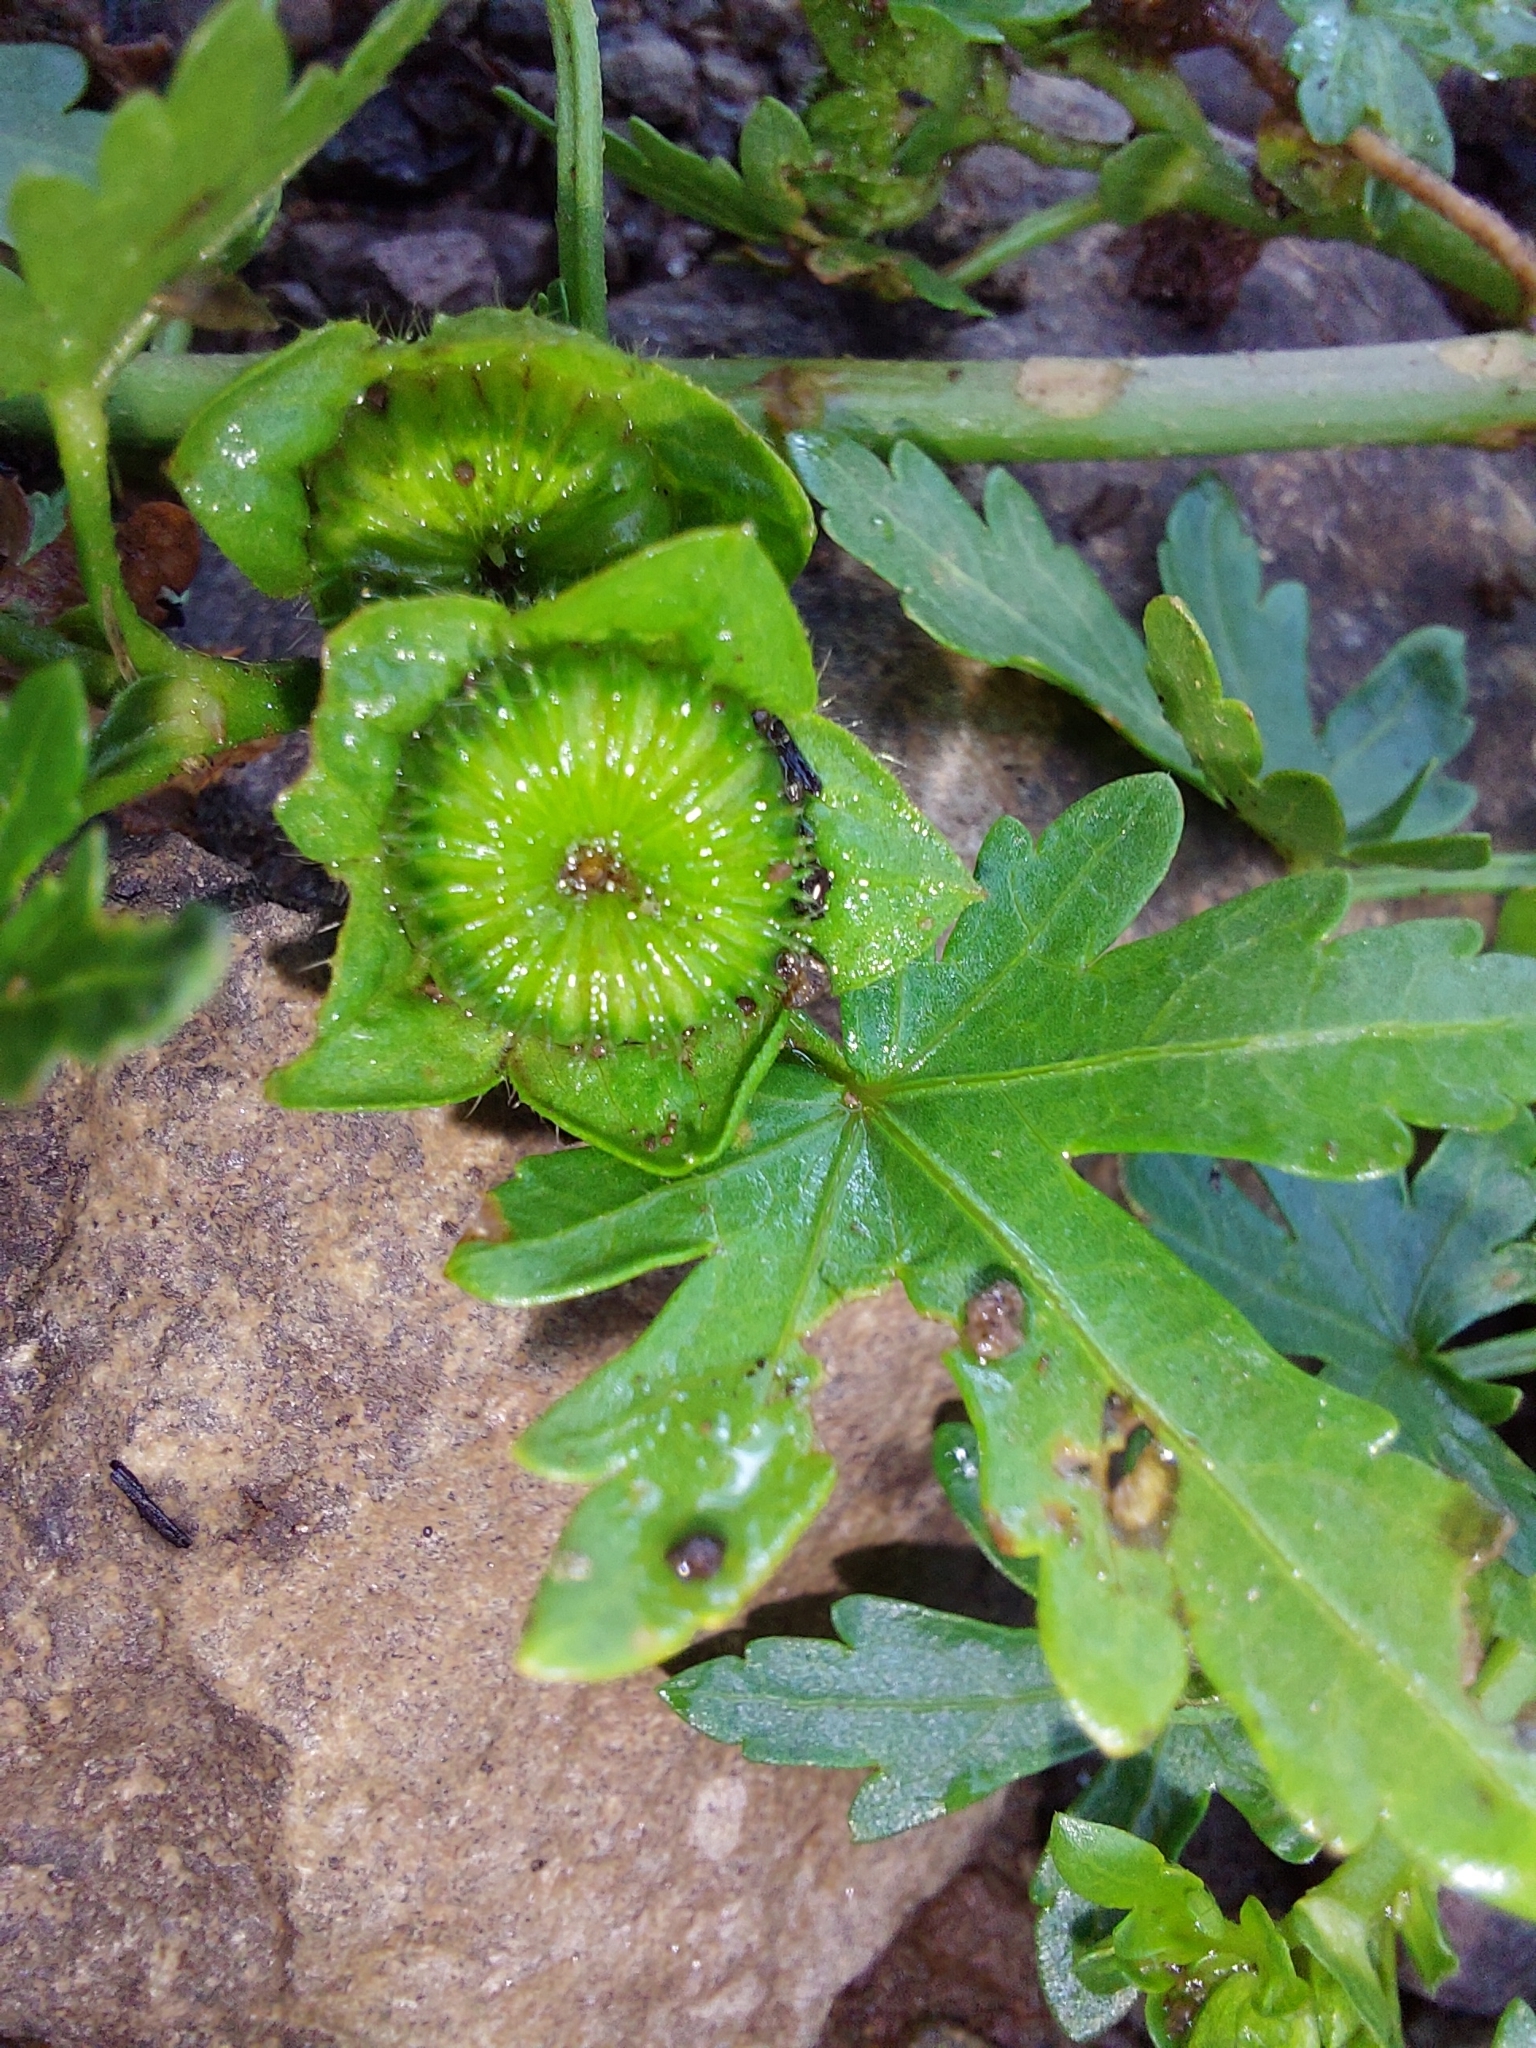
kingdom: Plantae
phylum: Tracheophyta
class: Magnoliopsida
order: Malvales
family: Malvaceae
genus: Modiola
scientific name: Modiola caroliniana
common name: Carolina bristlemallow
